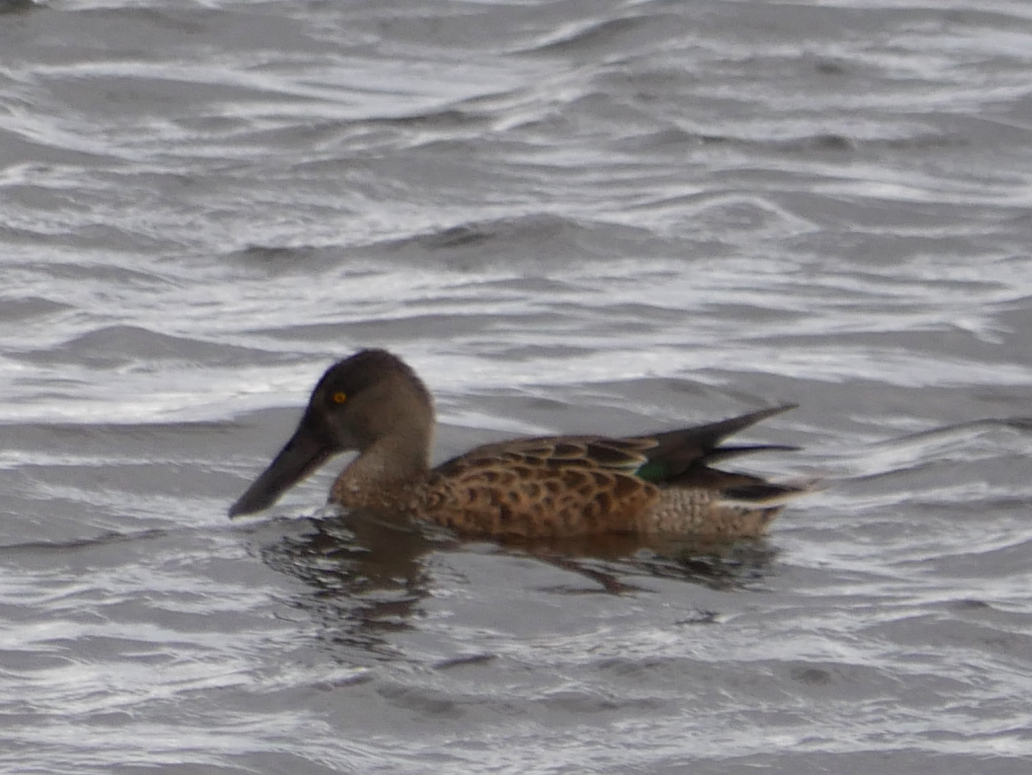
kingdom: Animalia
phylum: Chordata
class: Aves
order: Anseriformes
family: Anatidae
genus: Spatula
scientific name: Spatula clypeata
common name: Northern shoveler
